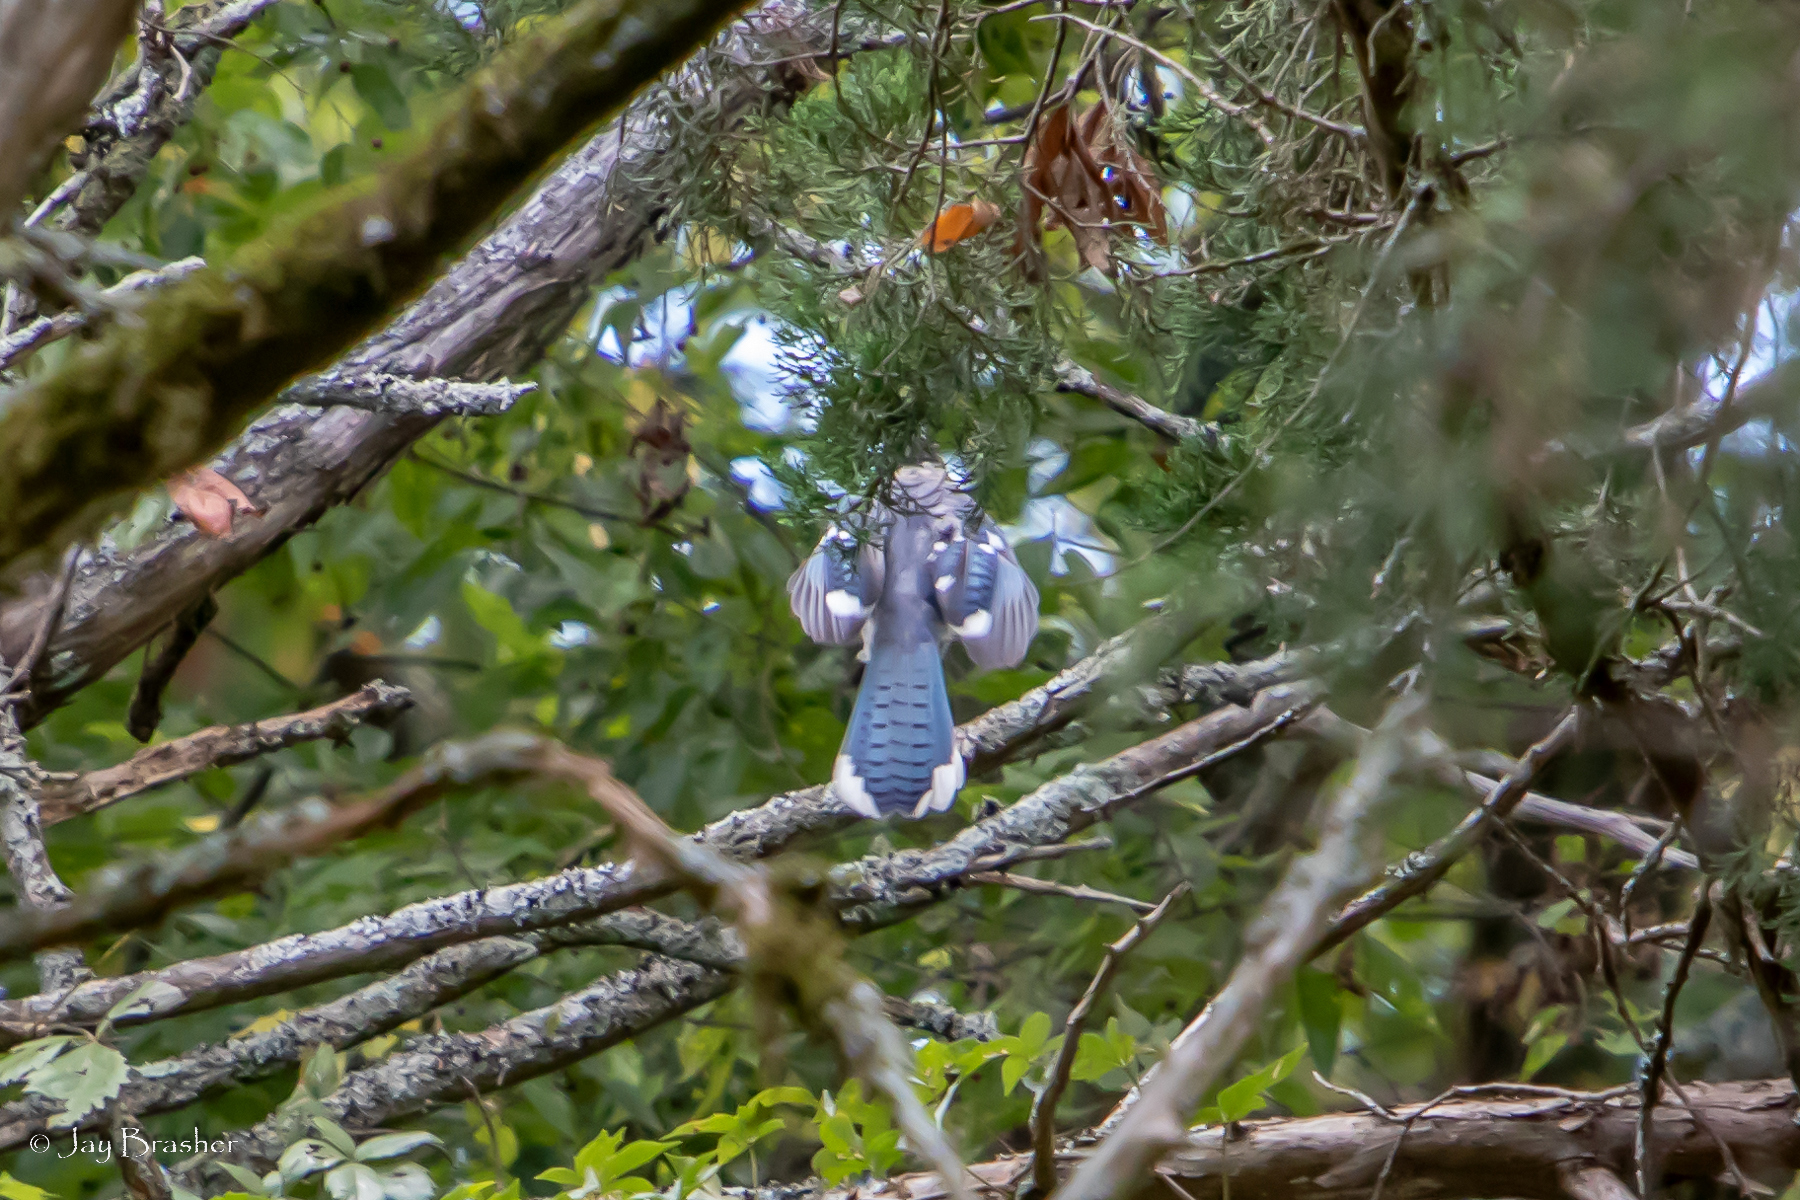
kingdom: Animalia
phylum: Chordata
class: Aves
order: Passeriformes
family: Corvidae
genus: Cyanocitta
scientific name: Cyanocitta cristata
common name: Blue jay
